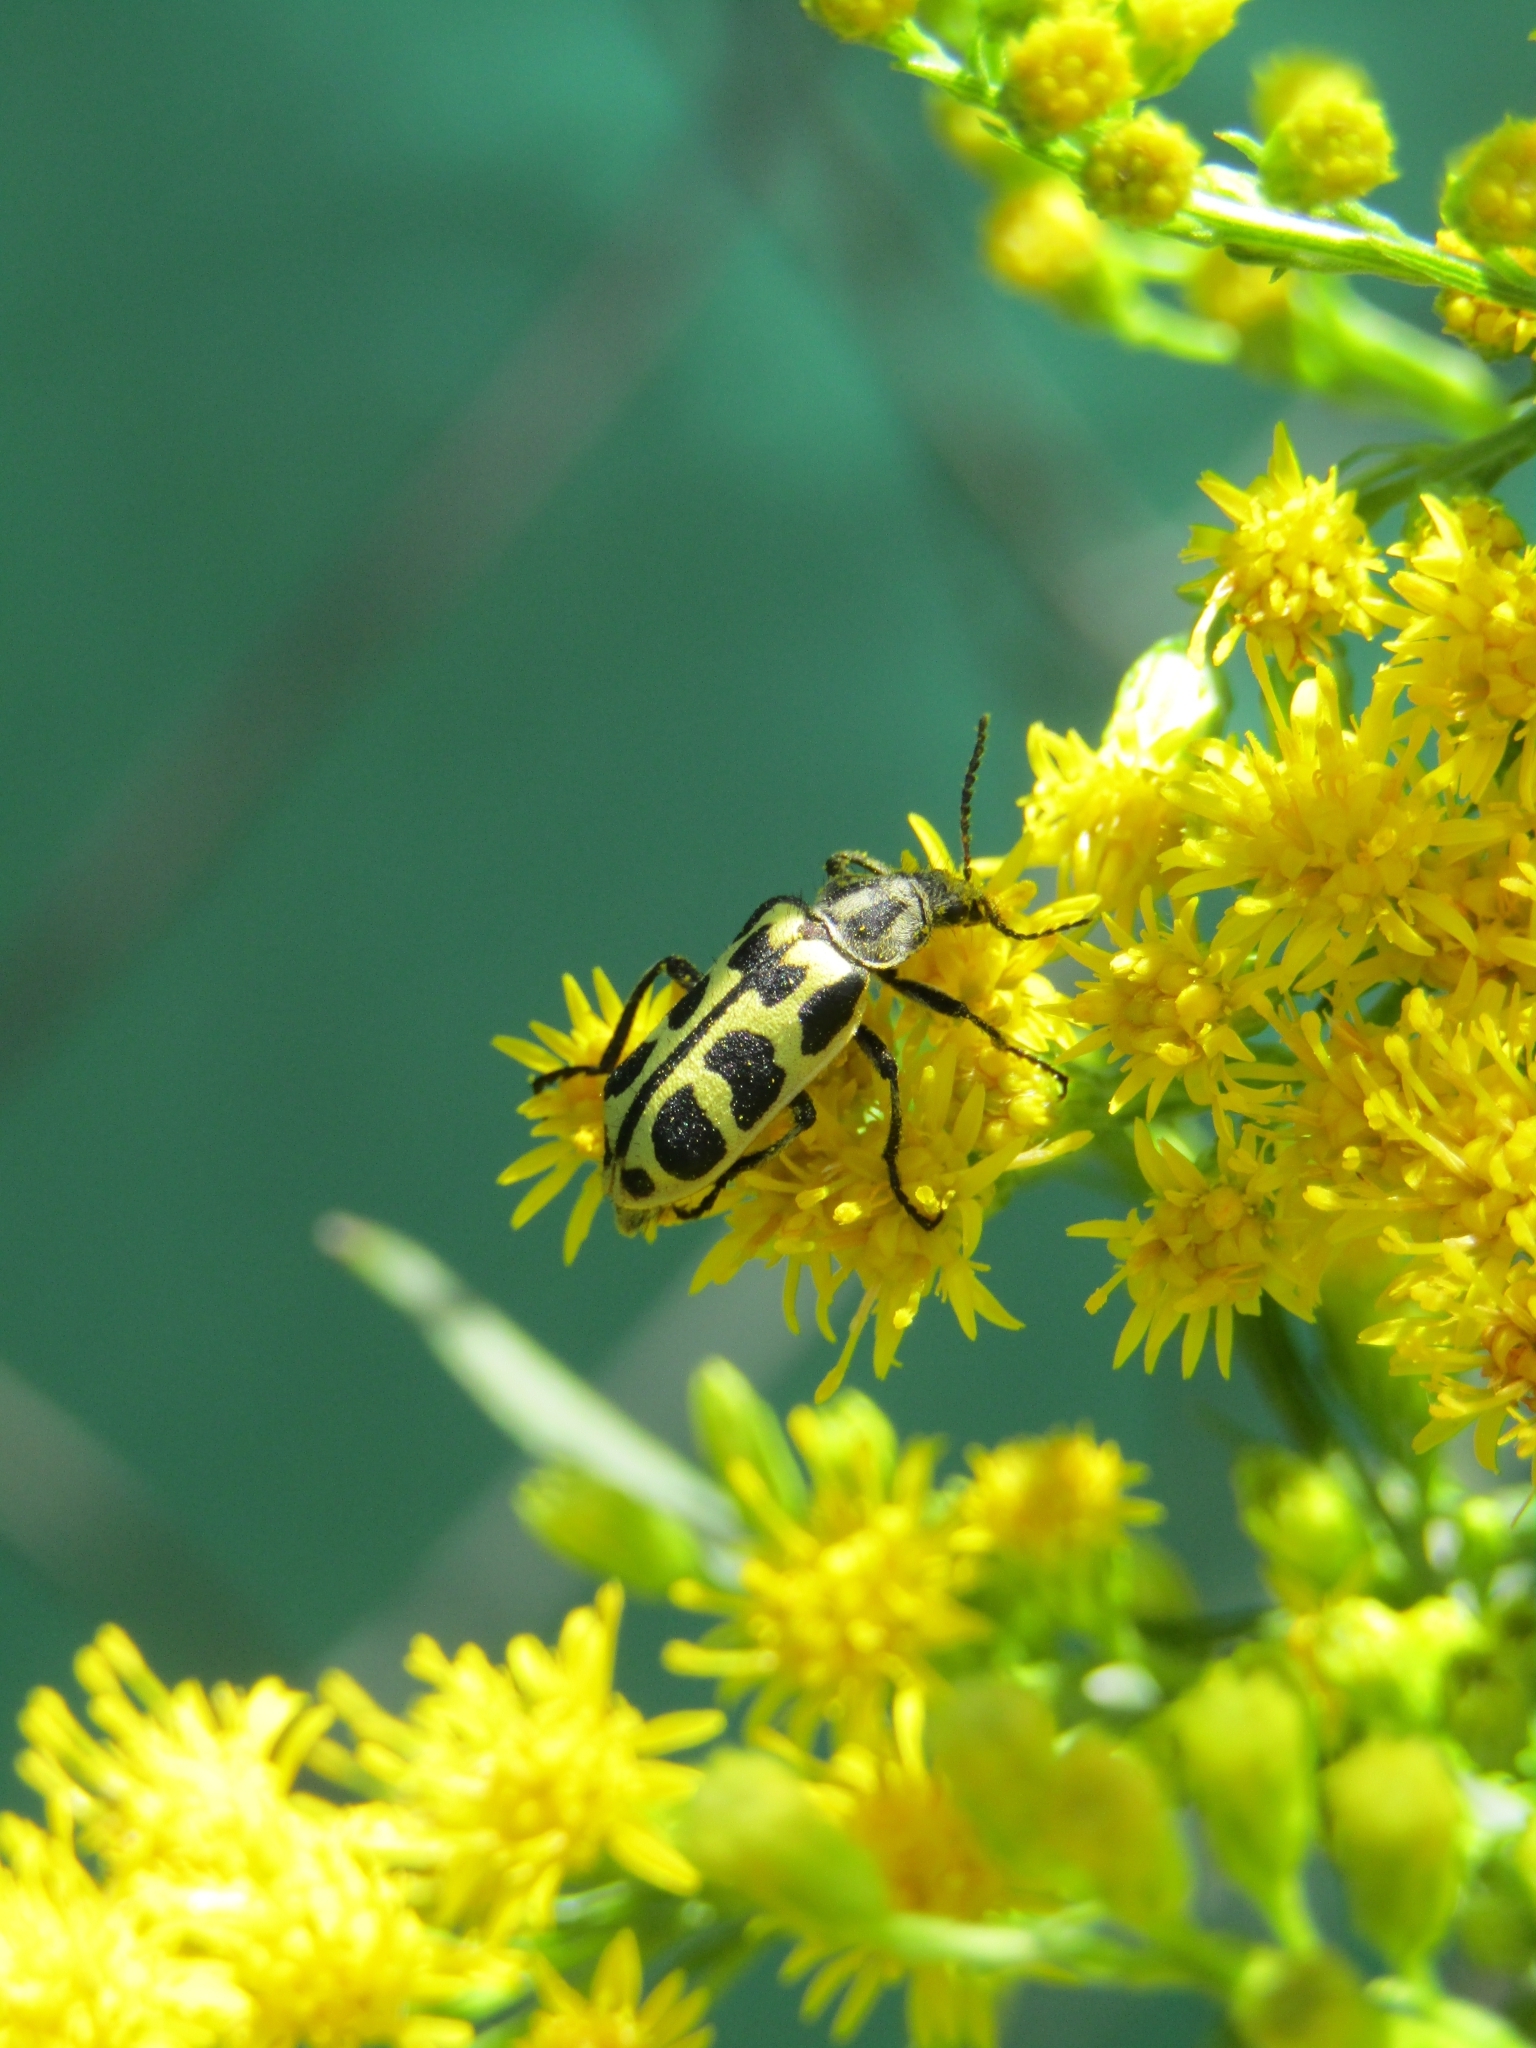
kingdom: Animalia
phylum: Arthropoda
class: Insecta
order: Coleoptera
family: Melyridae
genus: Astylus
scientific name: Astylus atromaculatus
